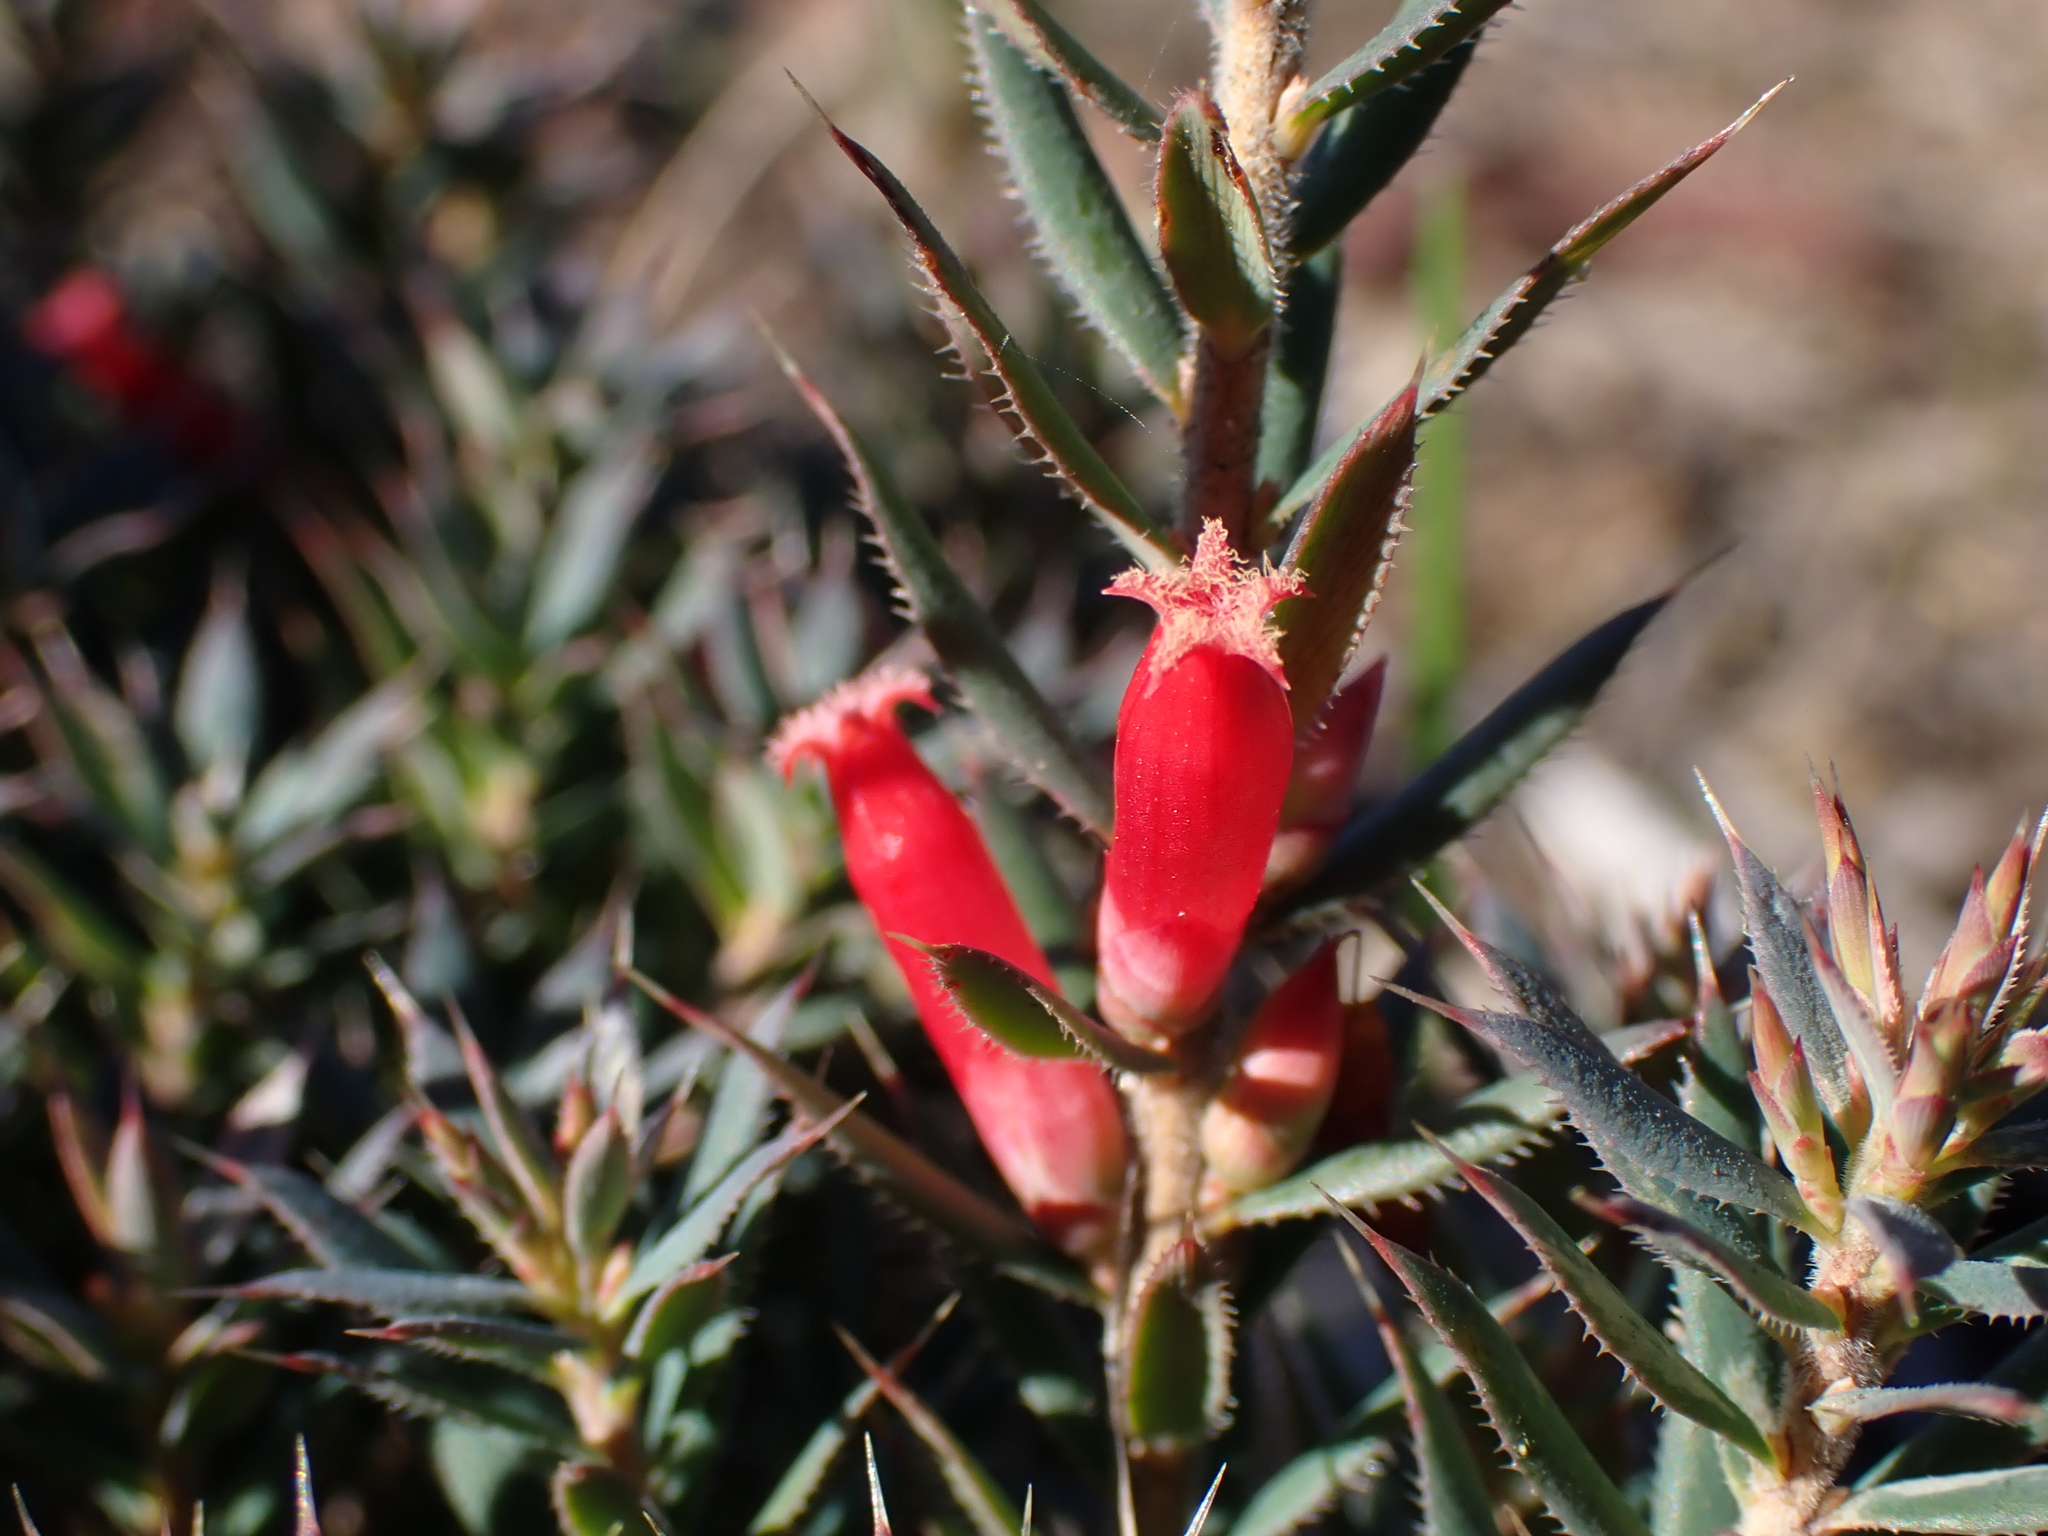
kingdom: Plantae
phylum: Tracheophyta
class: Magnoliopsida
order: Ericales
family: Ericaceae
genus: Styphelia
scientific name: Styphelia humifusa
